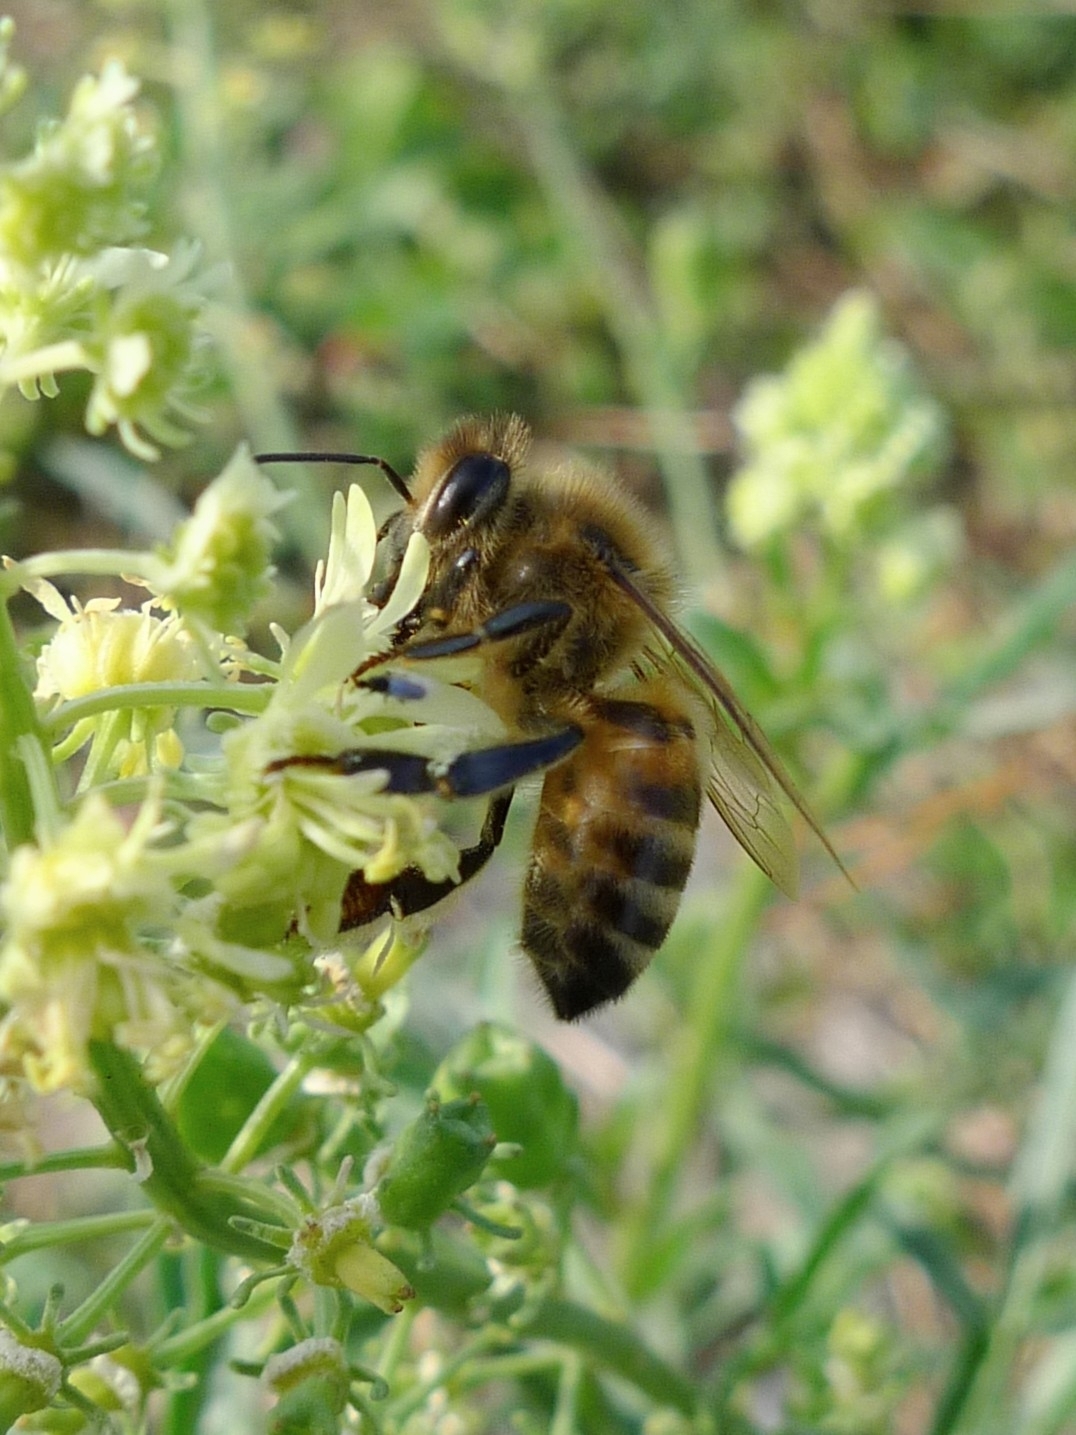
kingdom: Animalia
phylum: Arthropoda
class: Insecta
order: Hymenoptera
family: Apidae
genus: Apis
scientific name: Apis mellifera
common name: Honey bee
